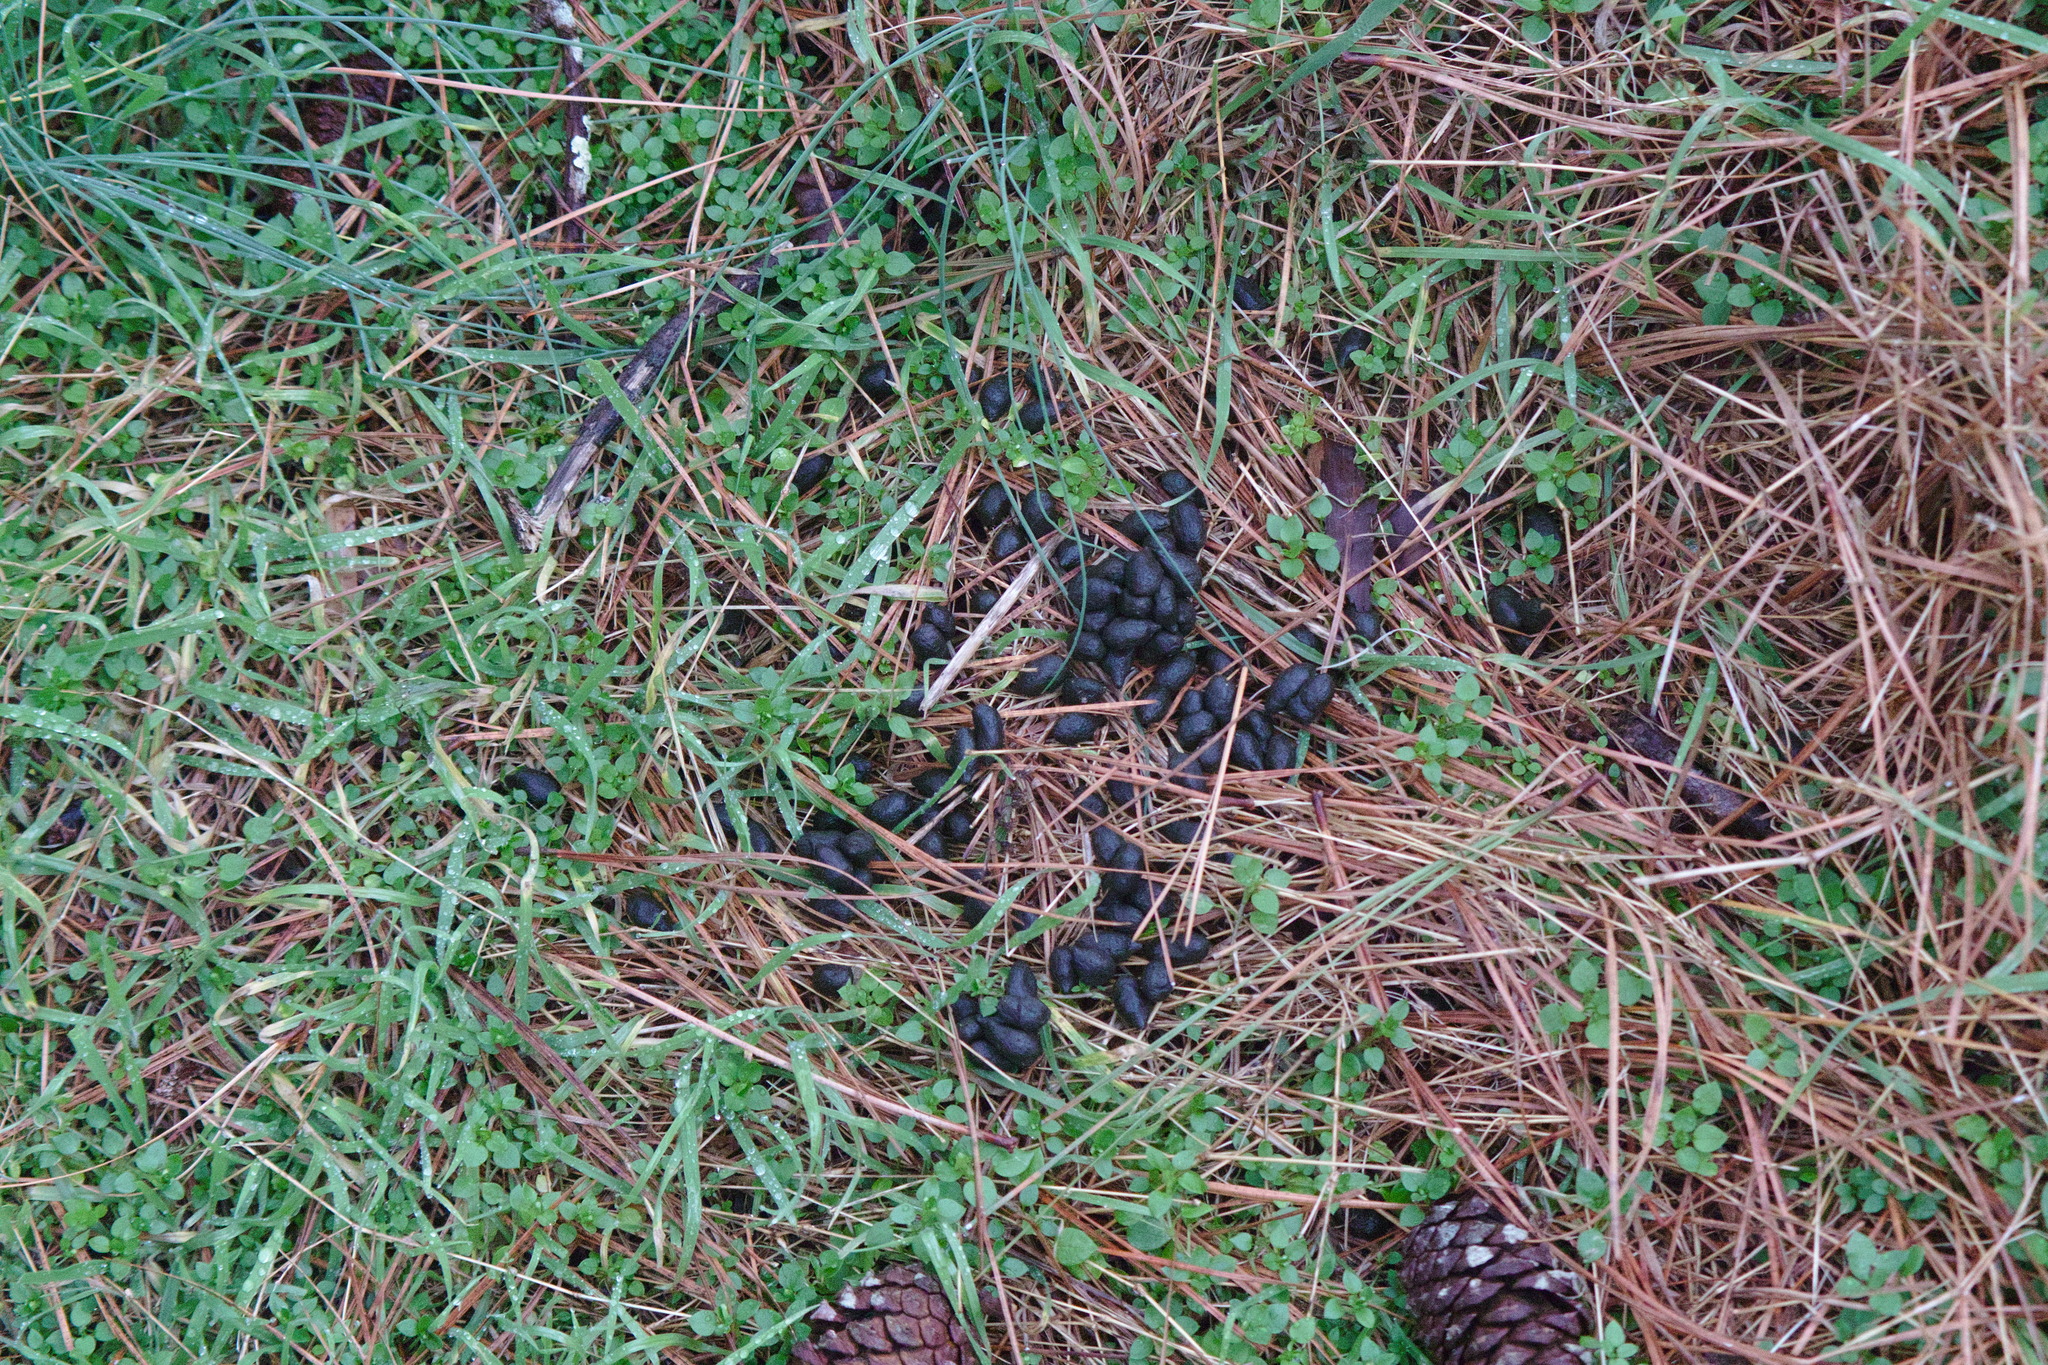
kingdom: Animalia
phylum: Chordata
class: Mammalia
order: Artiodactyla
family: Cervidae
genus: Odocoileus
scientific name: Odocoileus virginianus
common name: White-tailed deer
